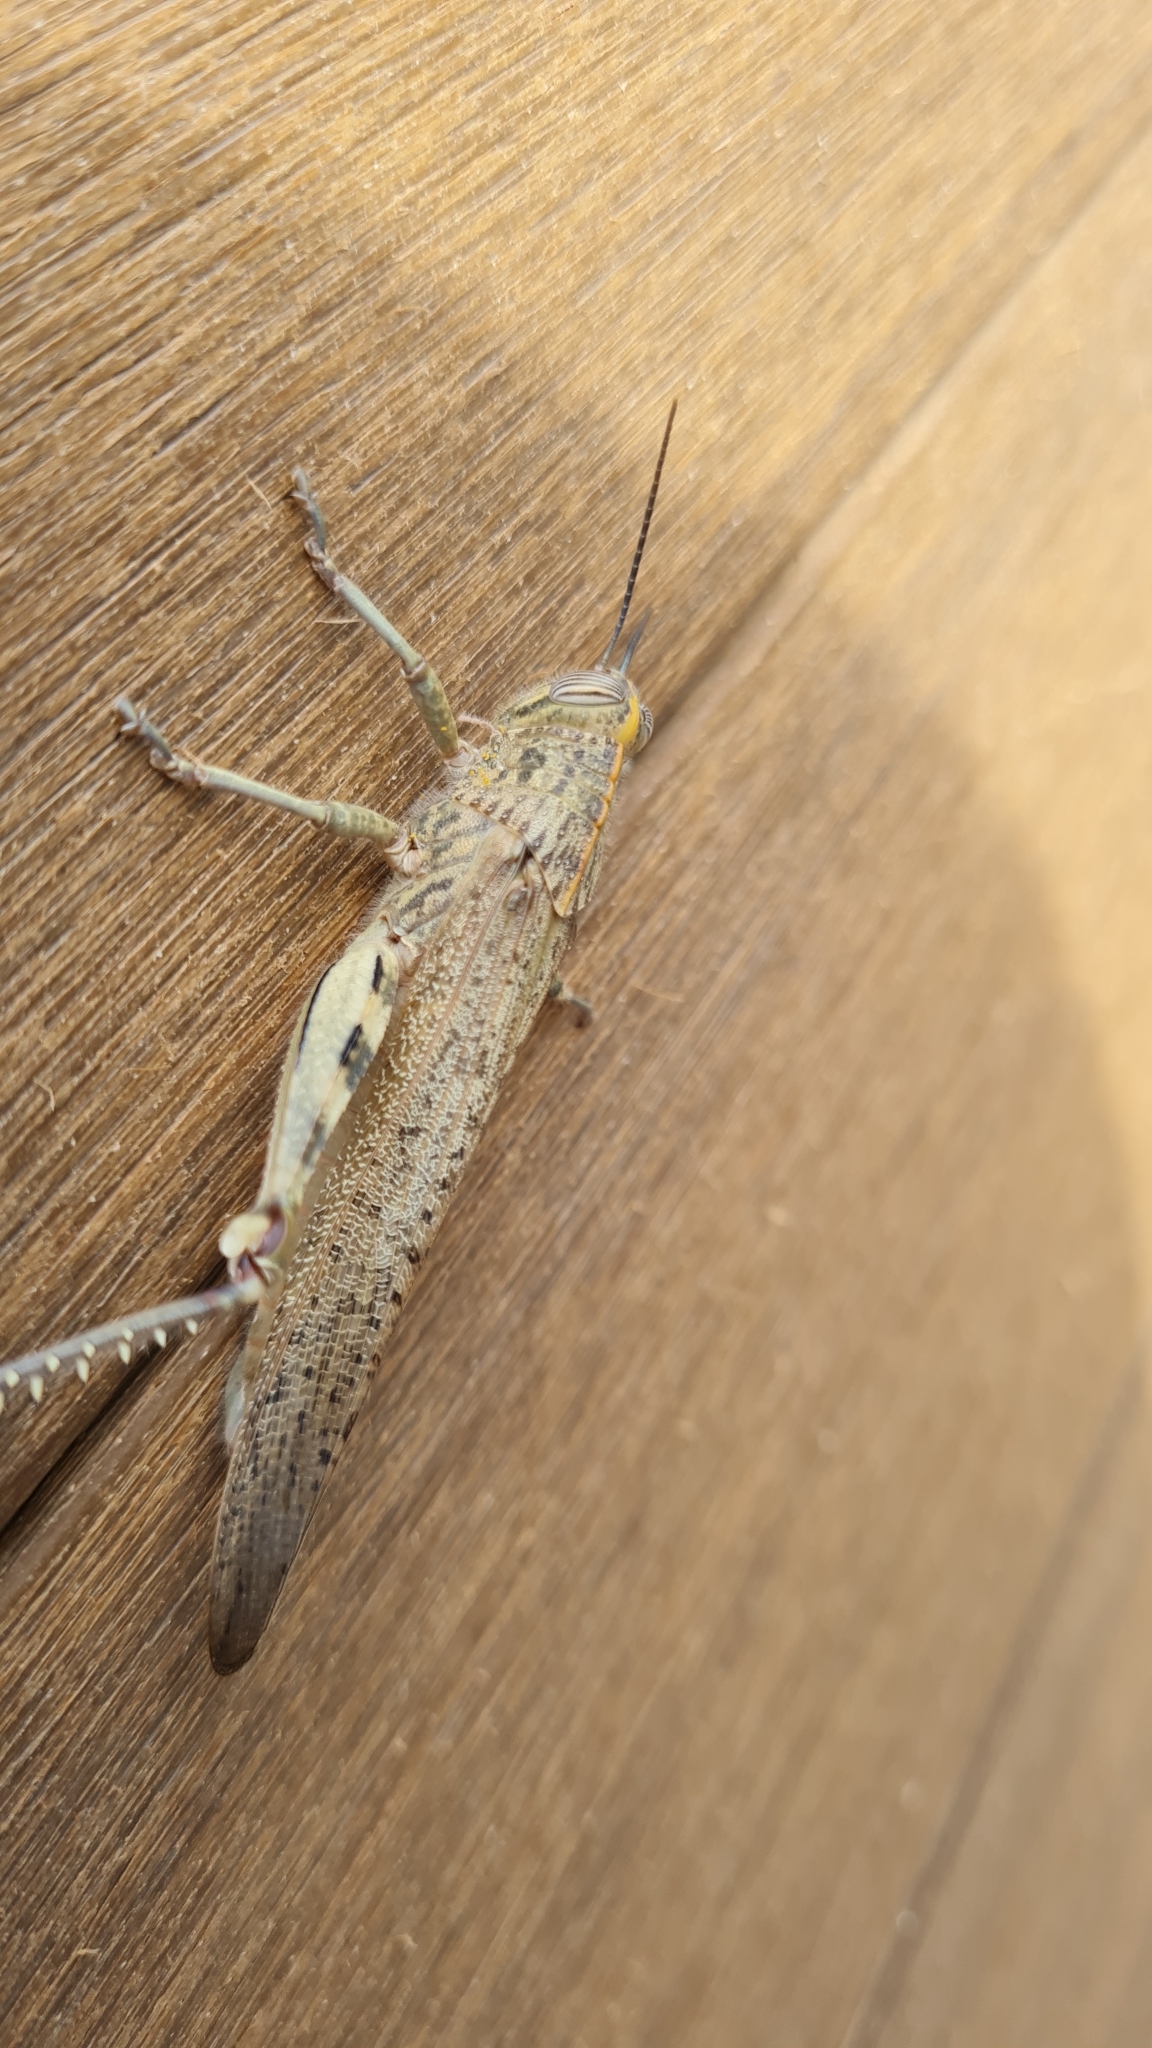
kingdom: Animalia
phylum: Arthropoda
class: Insecta
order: Orthoptera
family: Acrididae
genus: Anacridium
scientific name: Anacridium aegyptium
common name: Egyptian grasshopper
